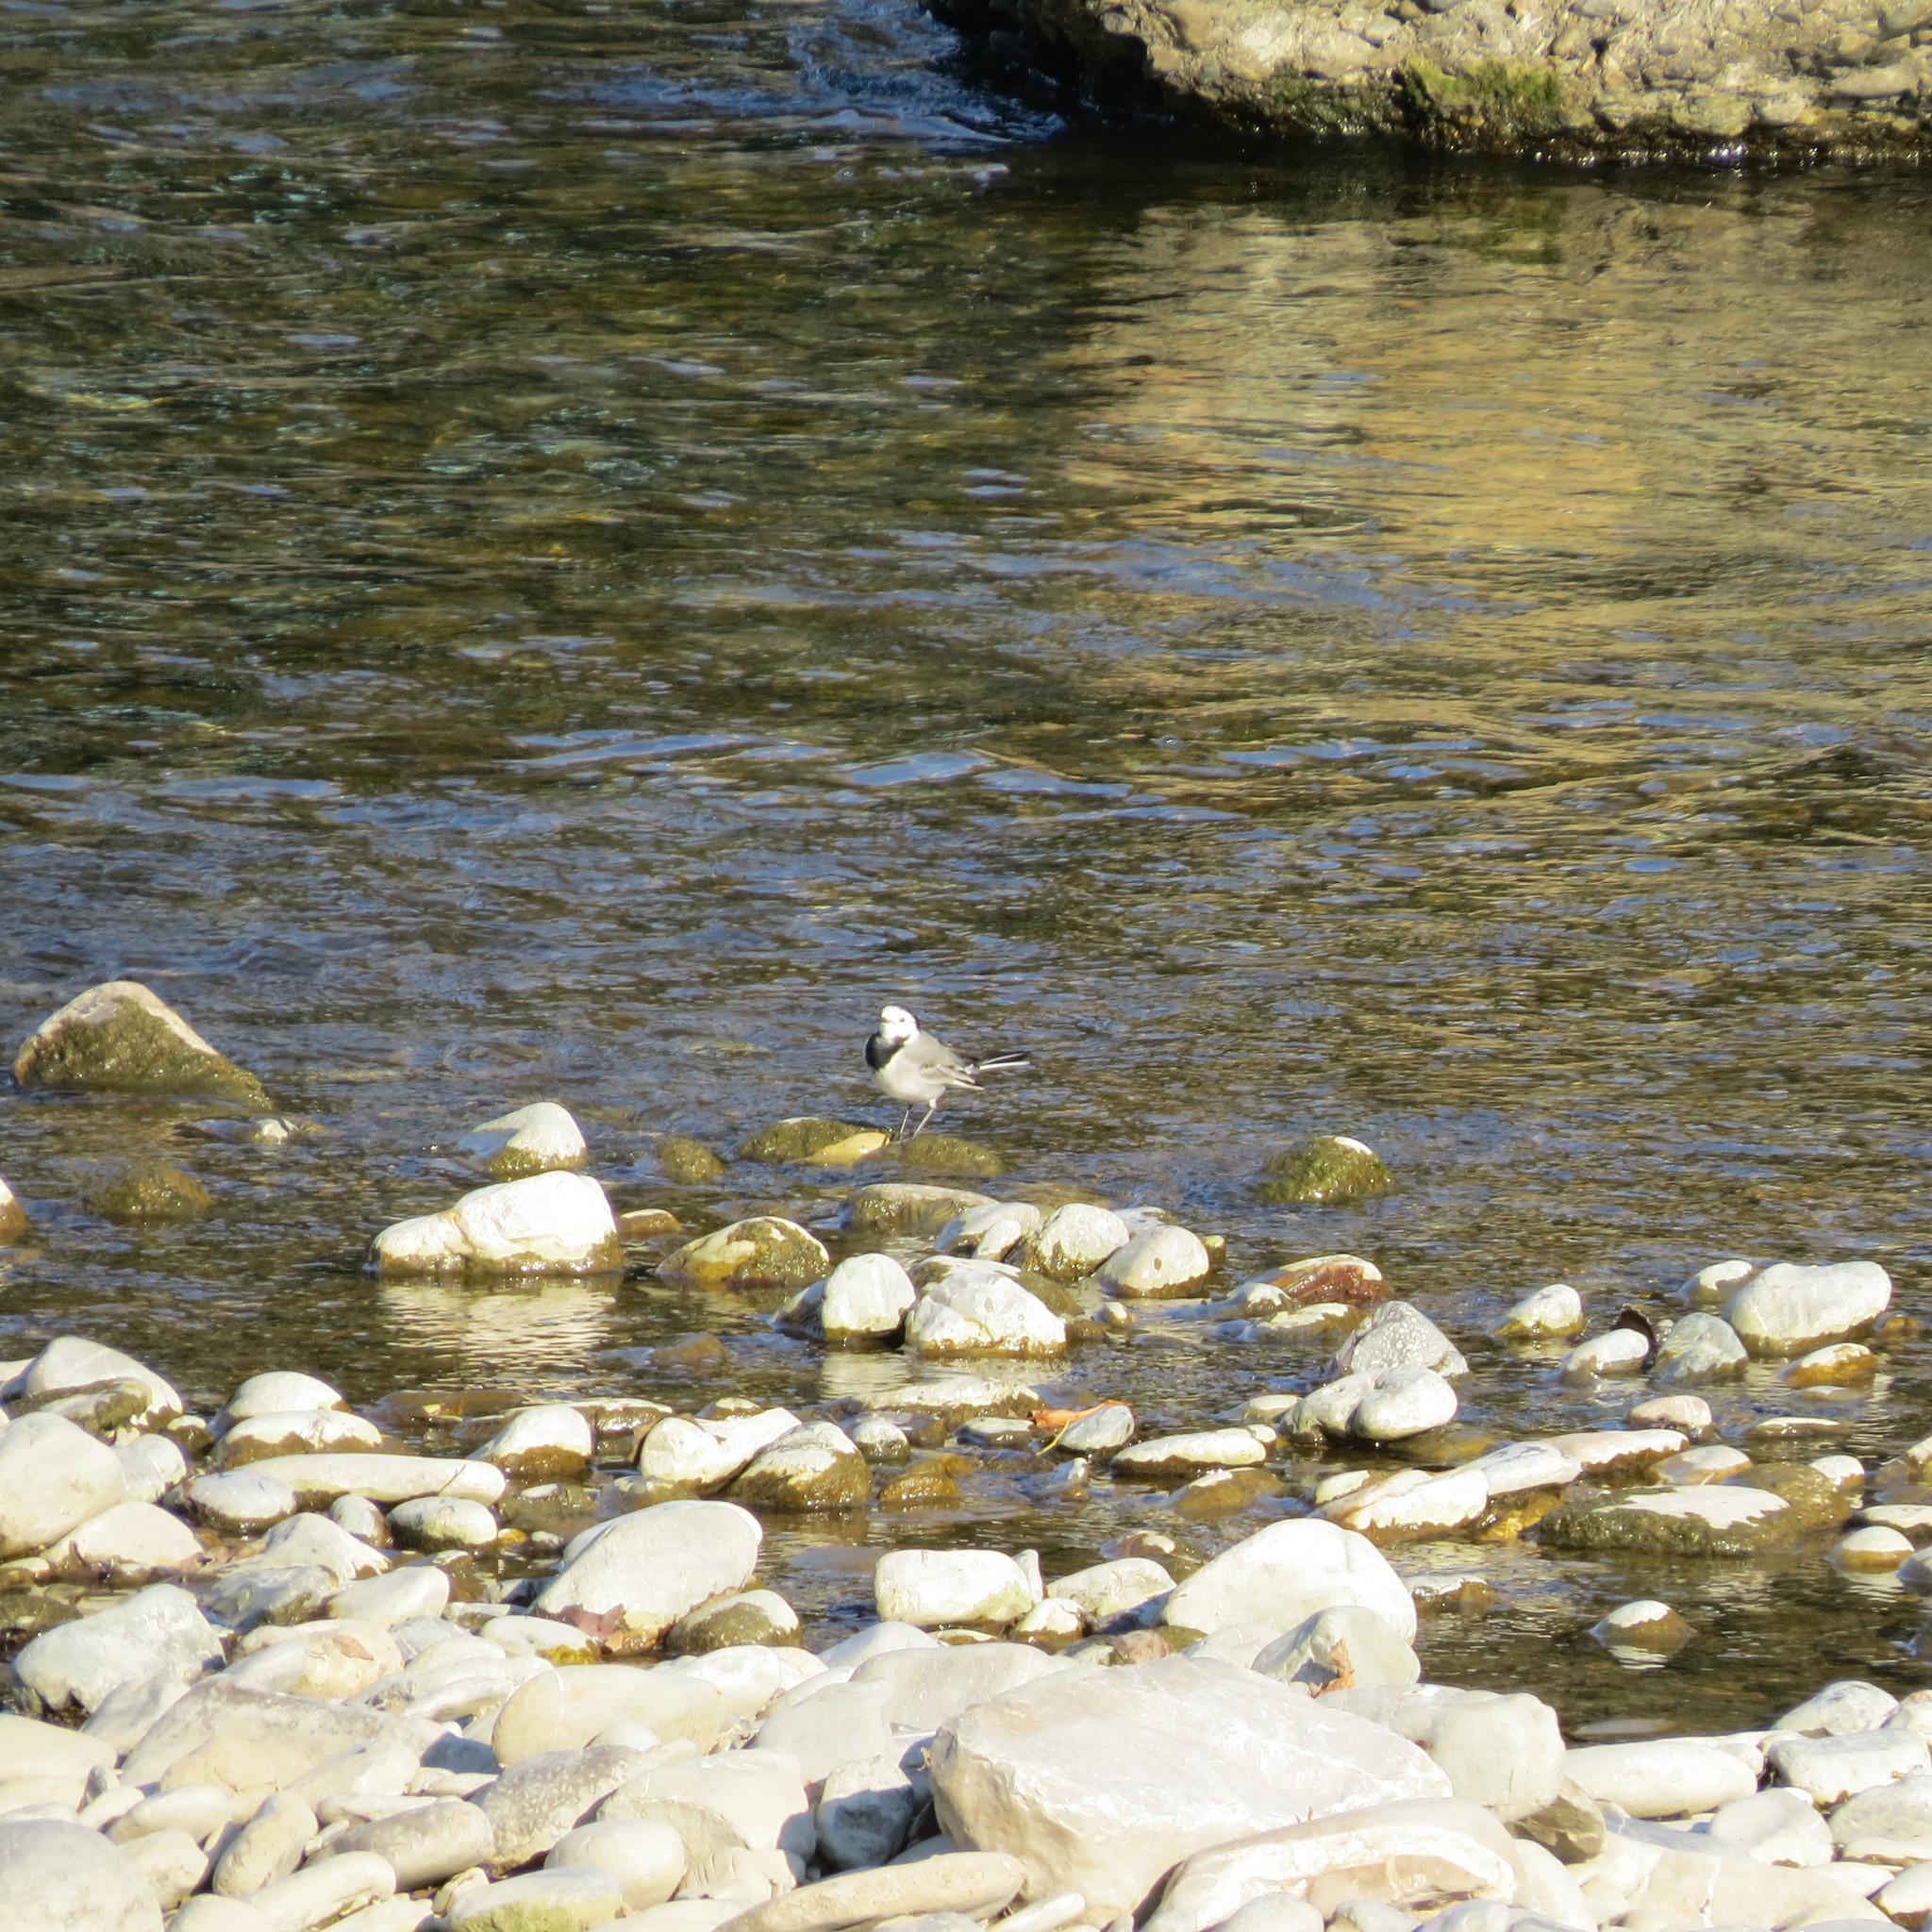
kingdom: Animalia
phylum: Chordata
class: Aves
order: Passeriformes
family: Motacillidae
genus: Motacilla
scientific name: Motacilla alba
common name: White wagtail
